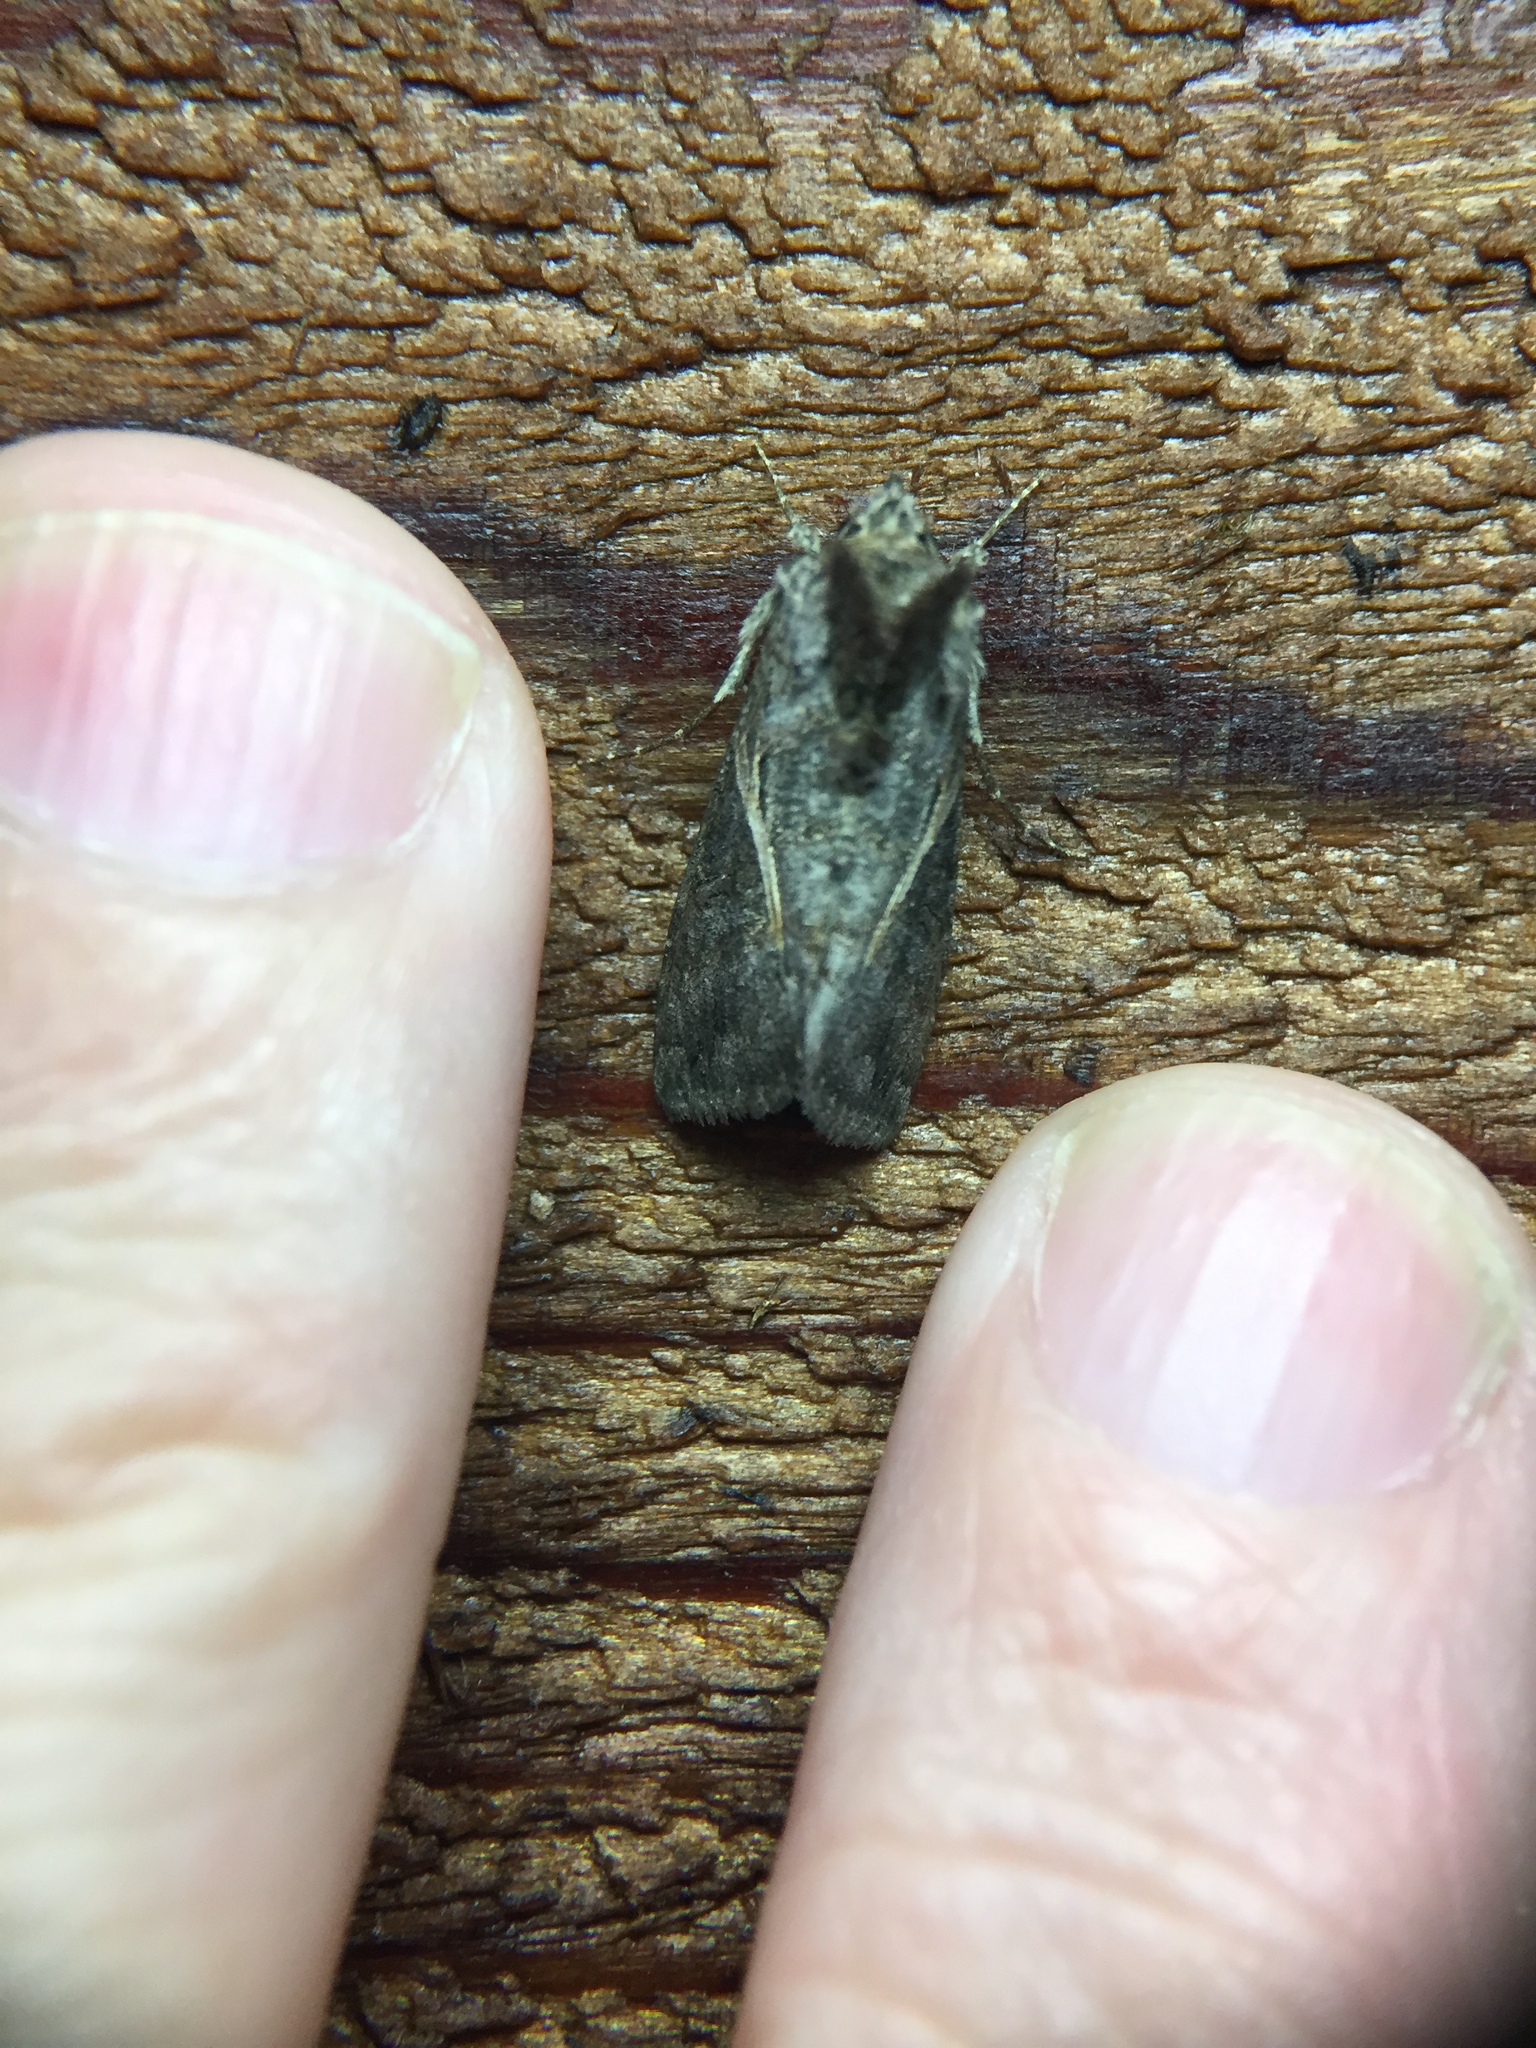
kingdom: Animalia
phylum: Arthropoda
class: Insecta
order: Lepidoptera
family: Noctuidae
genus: Ctenoplusia
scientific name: Ctenoplusia albostriata
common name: Moth
